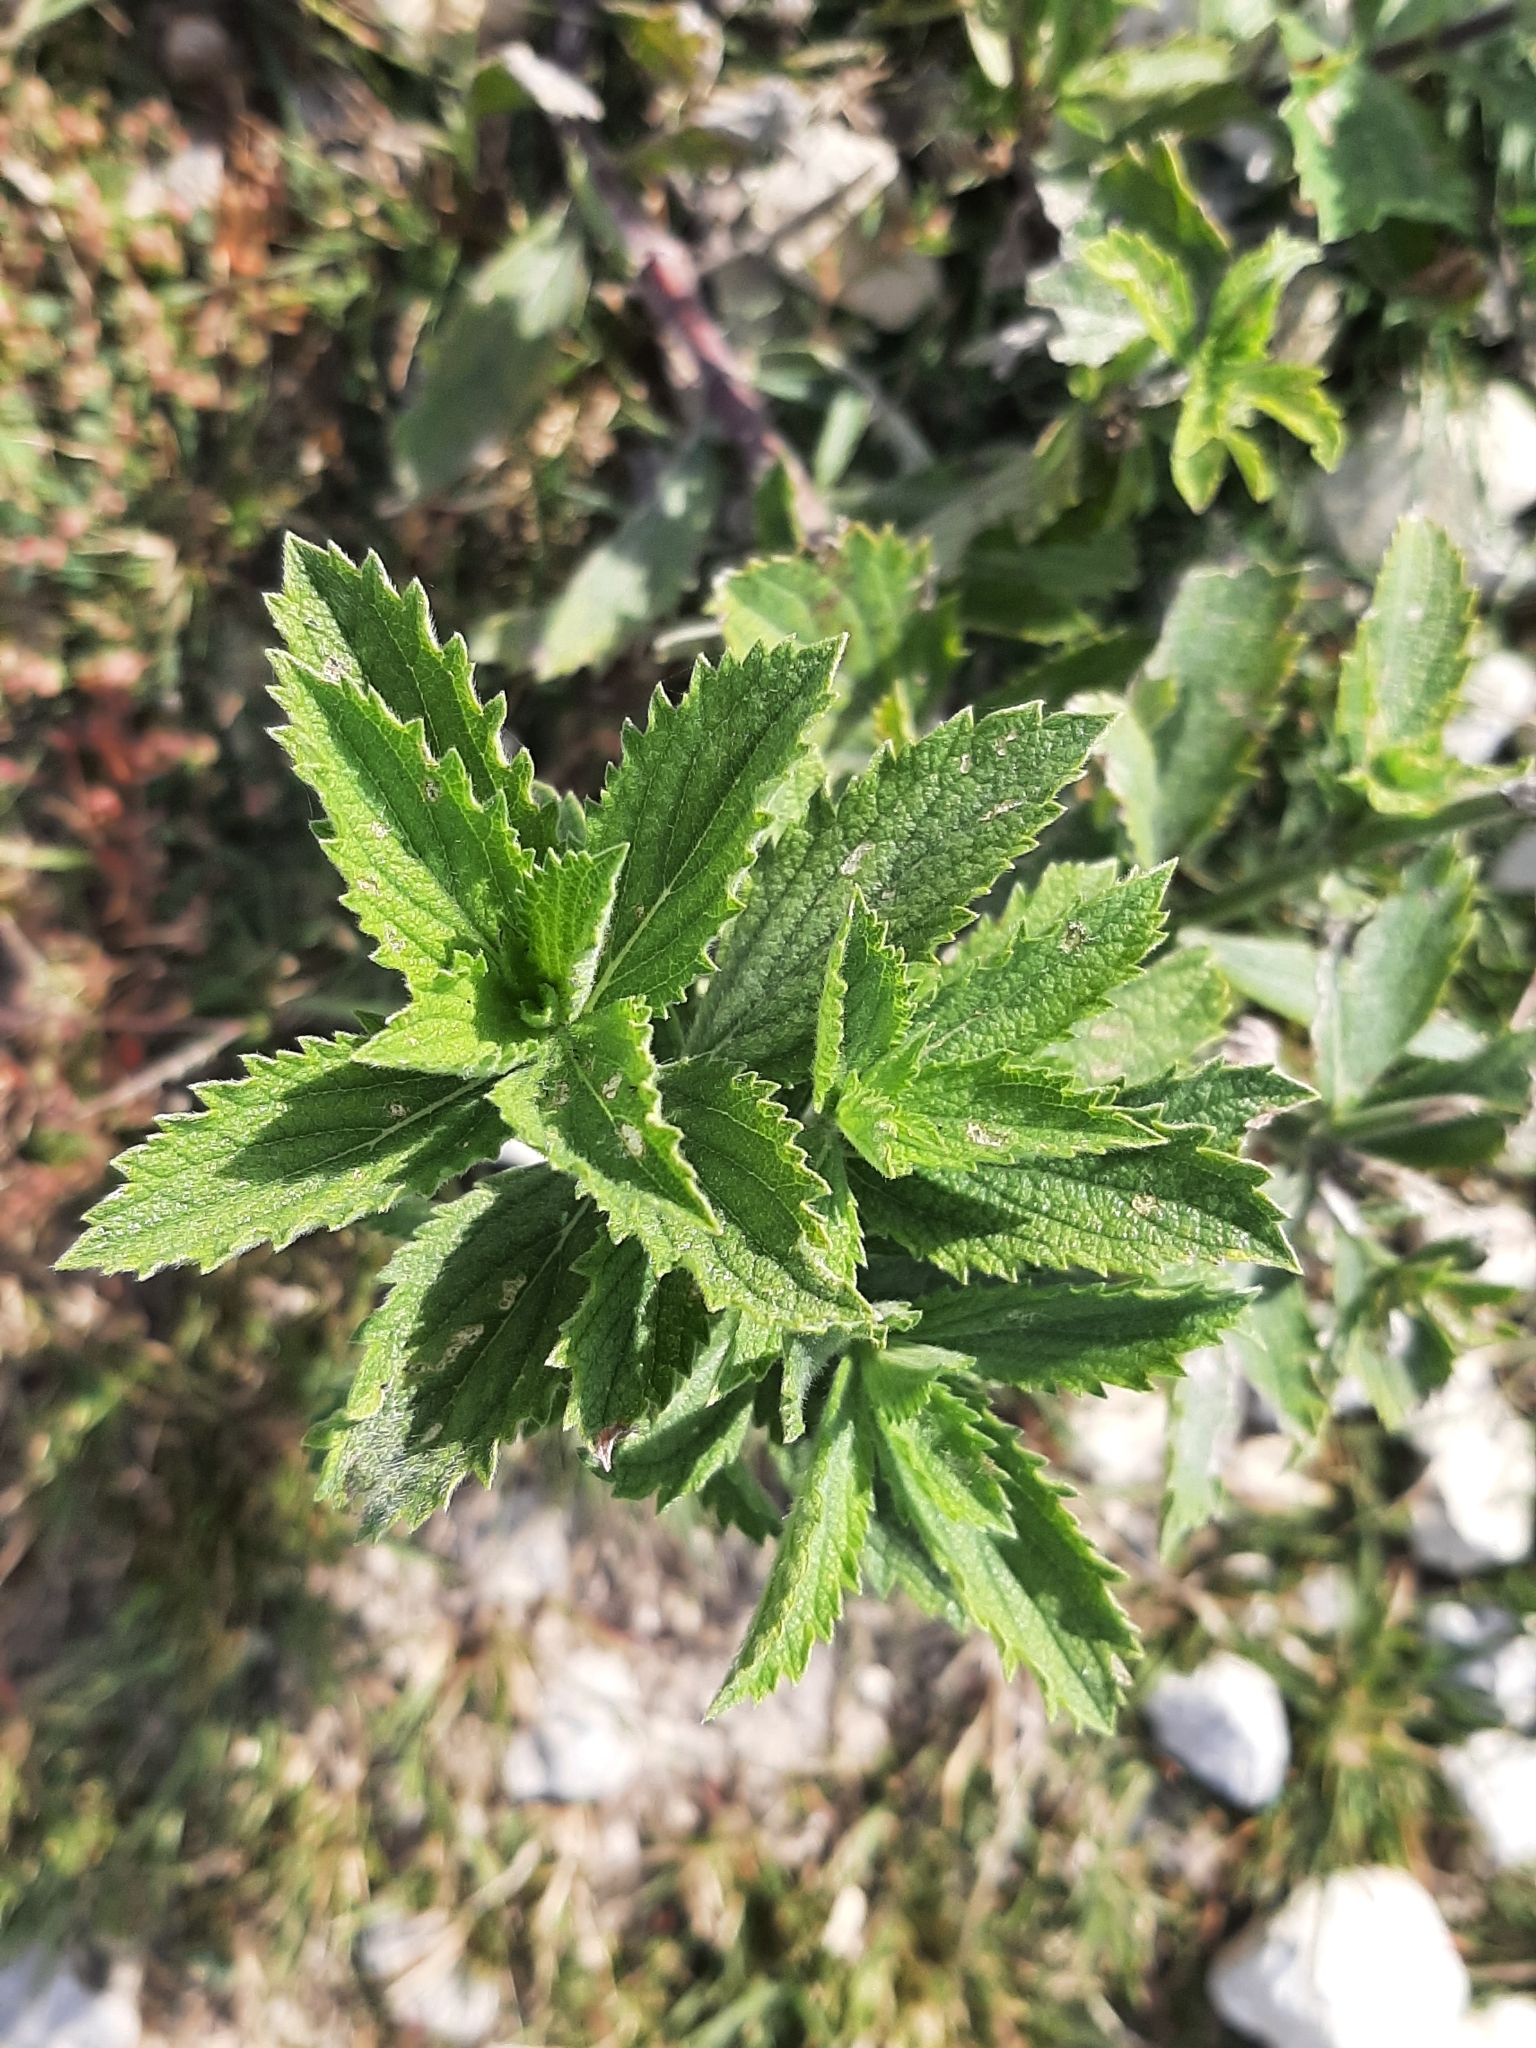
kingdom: Plantae
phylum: Tracheophyta
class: Magnoliopsida
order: Lamiales
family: Verbenaceae
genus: Verbena
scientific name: Verbena stricta
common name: Hoary vervain
